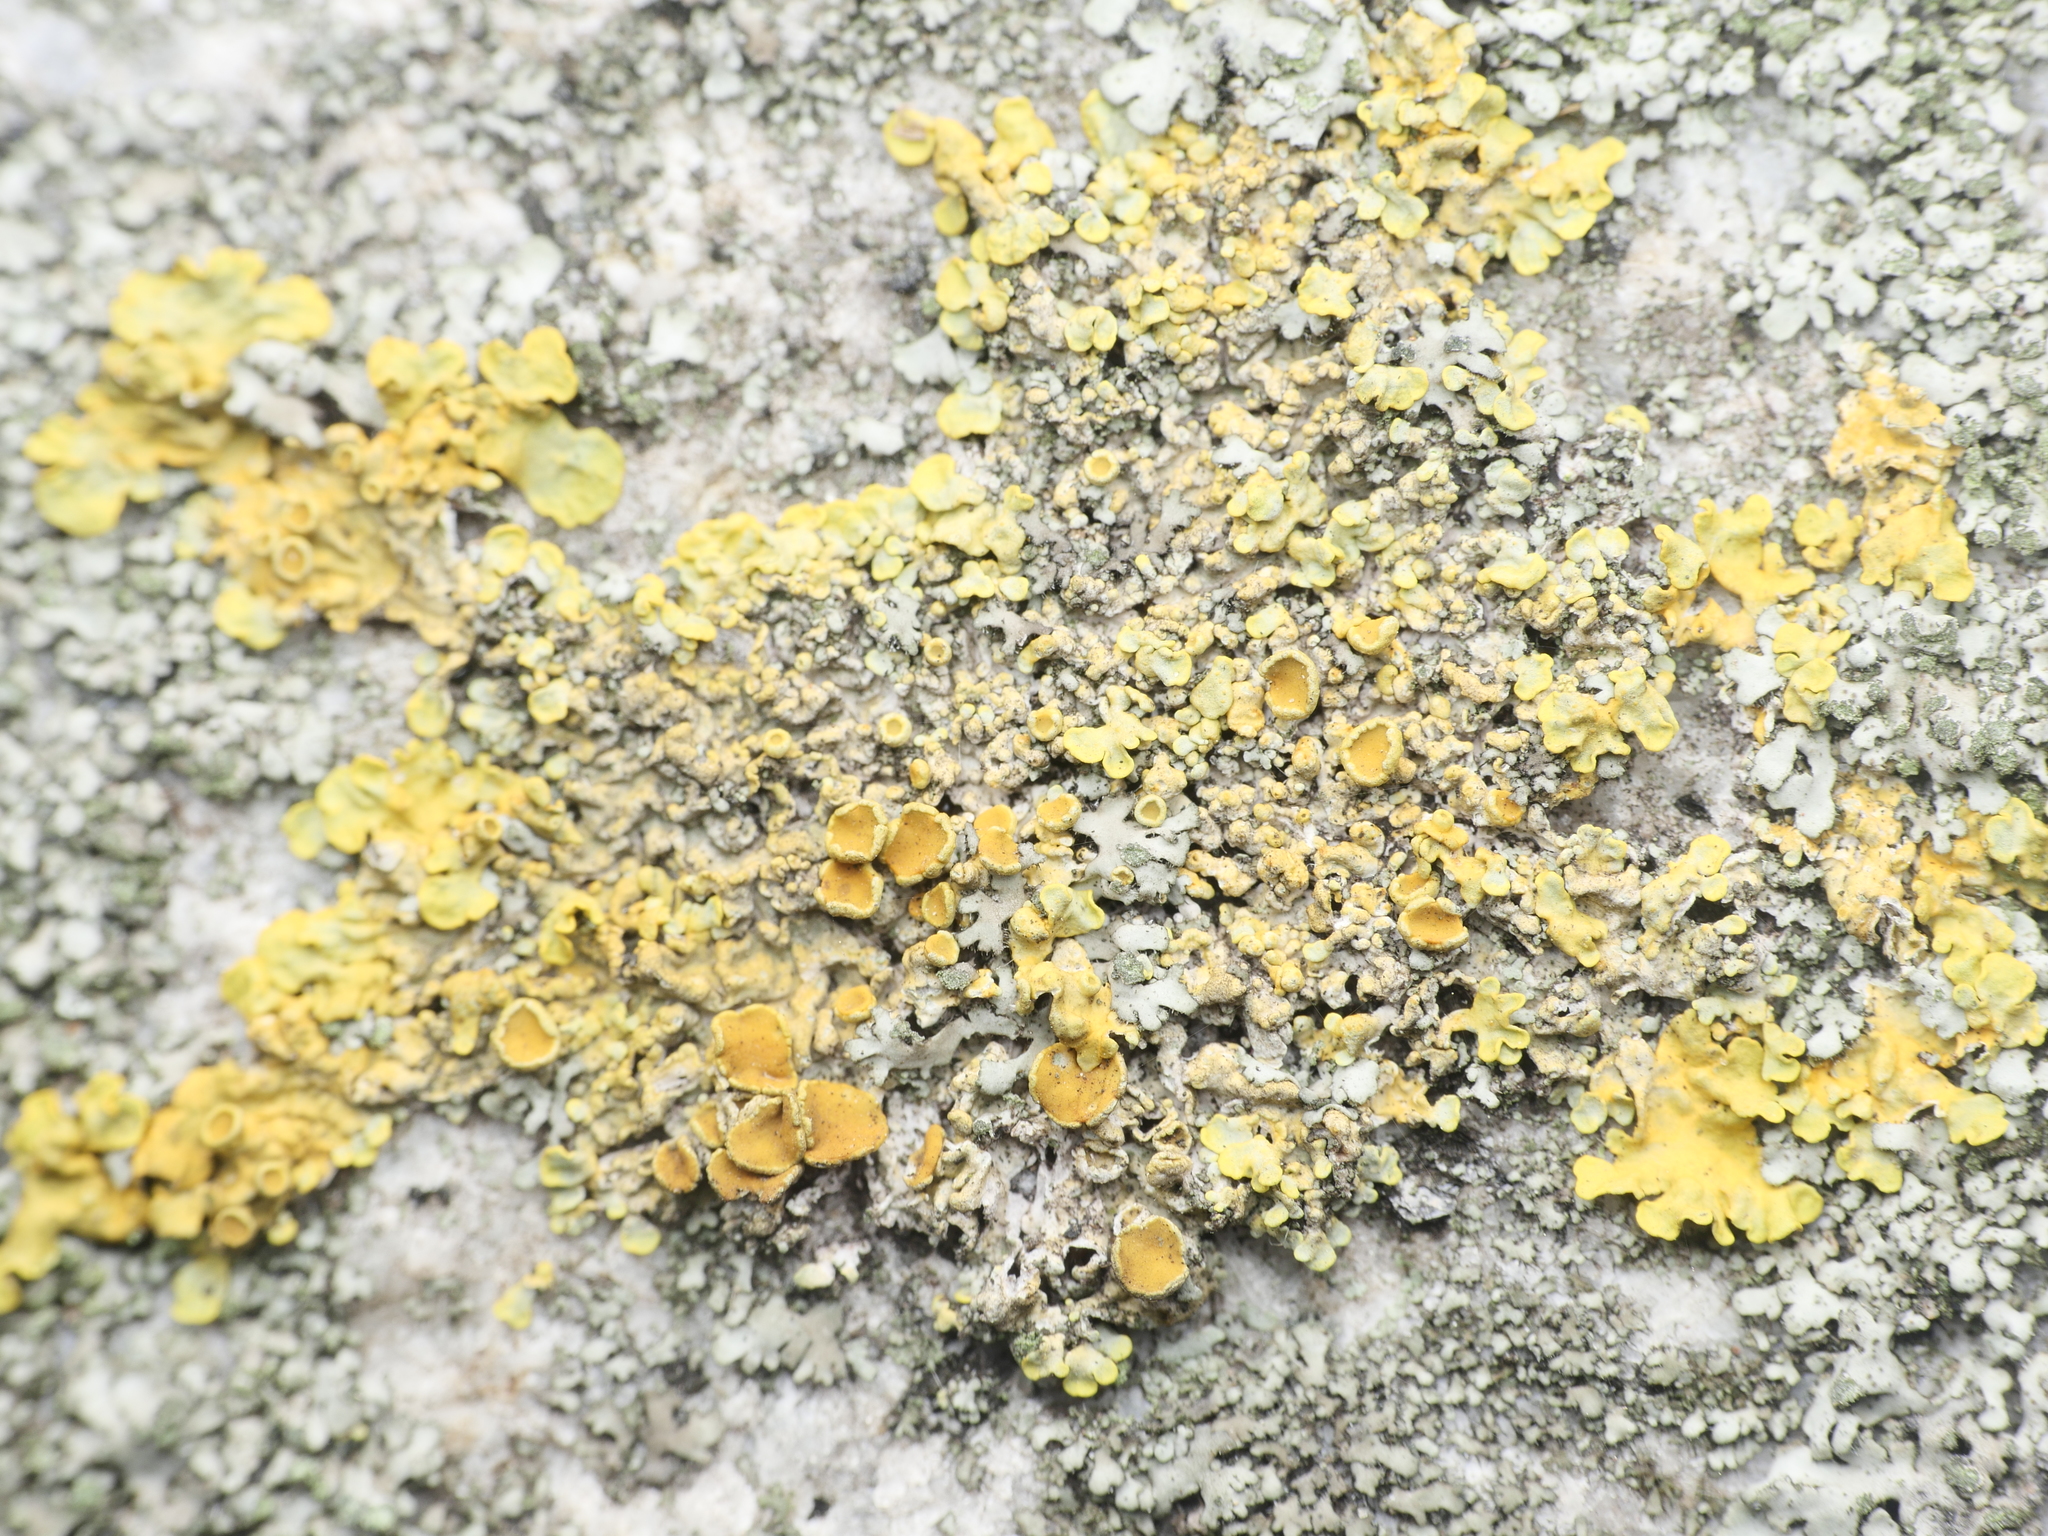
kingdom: Fungi
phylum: Ascomycota
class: Lecanoromycetes
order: Teloschistales
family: Teloschistaceae
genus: Xanthoria
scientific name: Xanthoria parietina
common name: Common orange lichen
